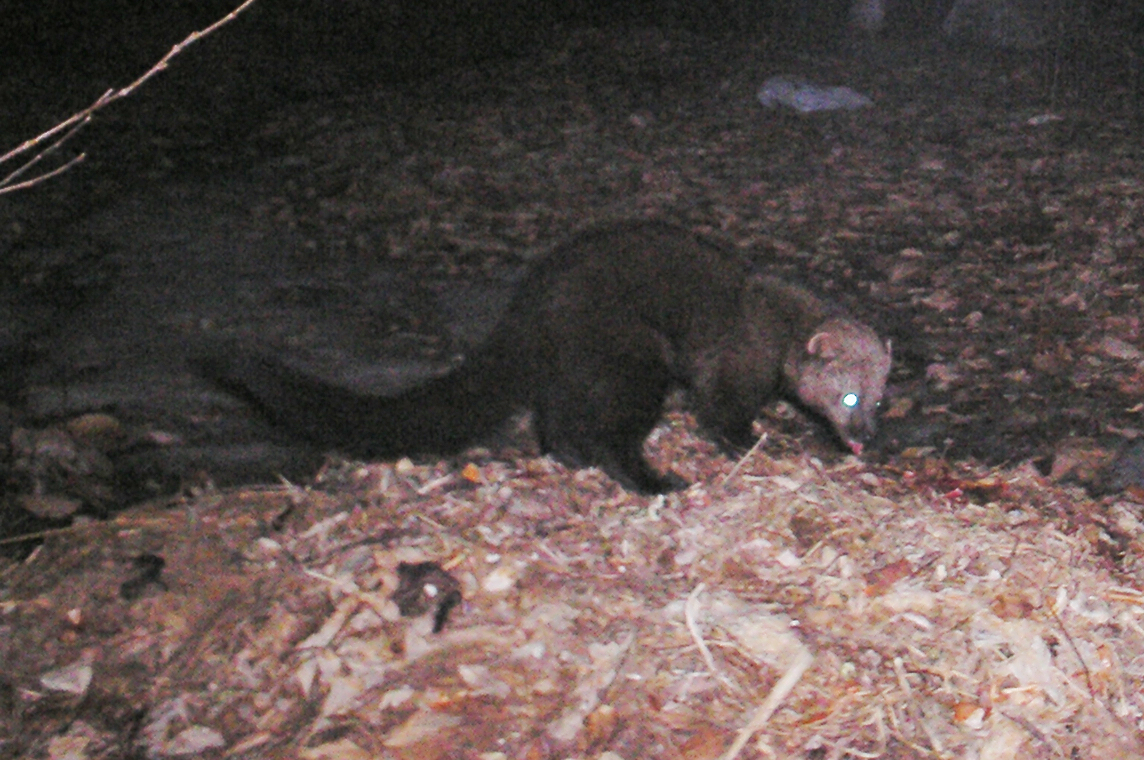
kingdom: Animalia
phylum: Chordata
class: Mammalia
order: Carnivora
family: Mustelidae
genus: Pekania
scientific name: Pekania pennanti
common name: Fisher
